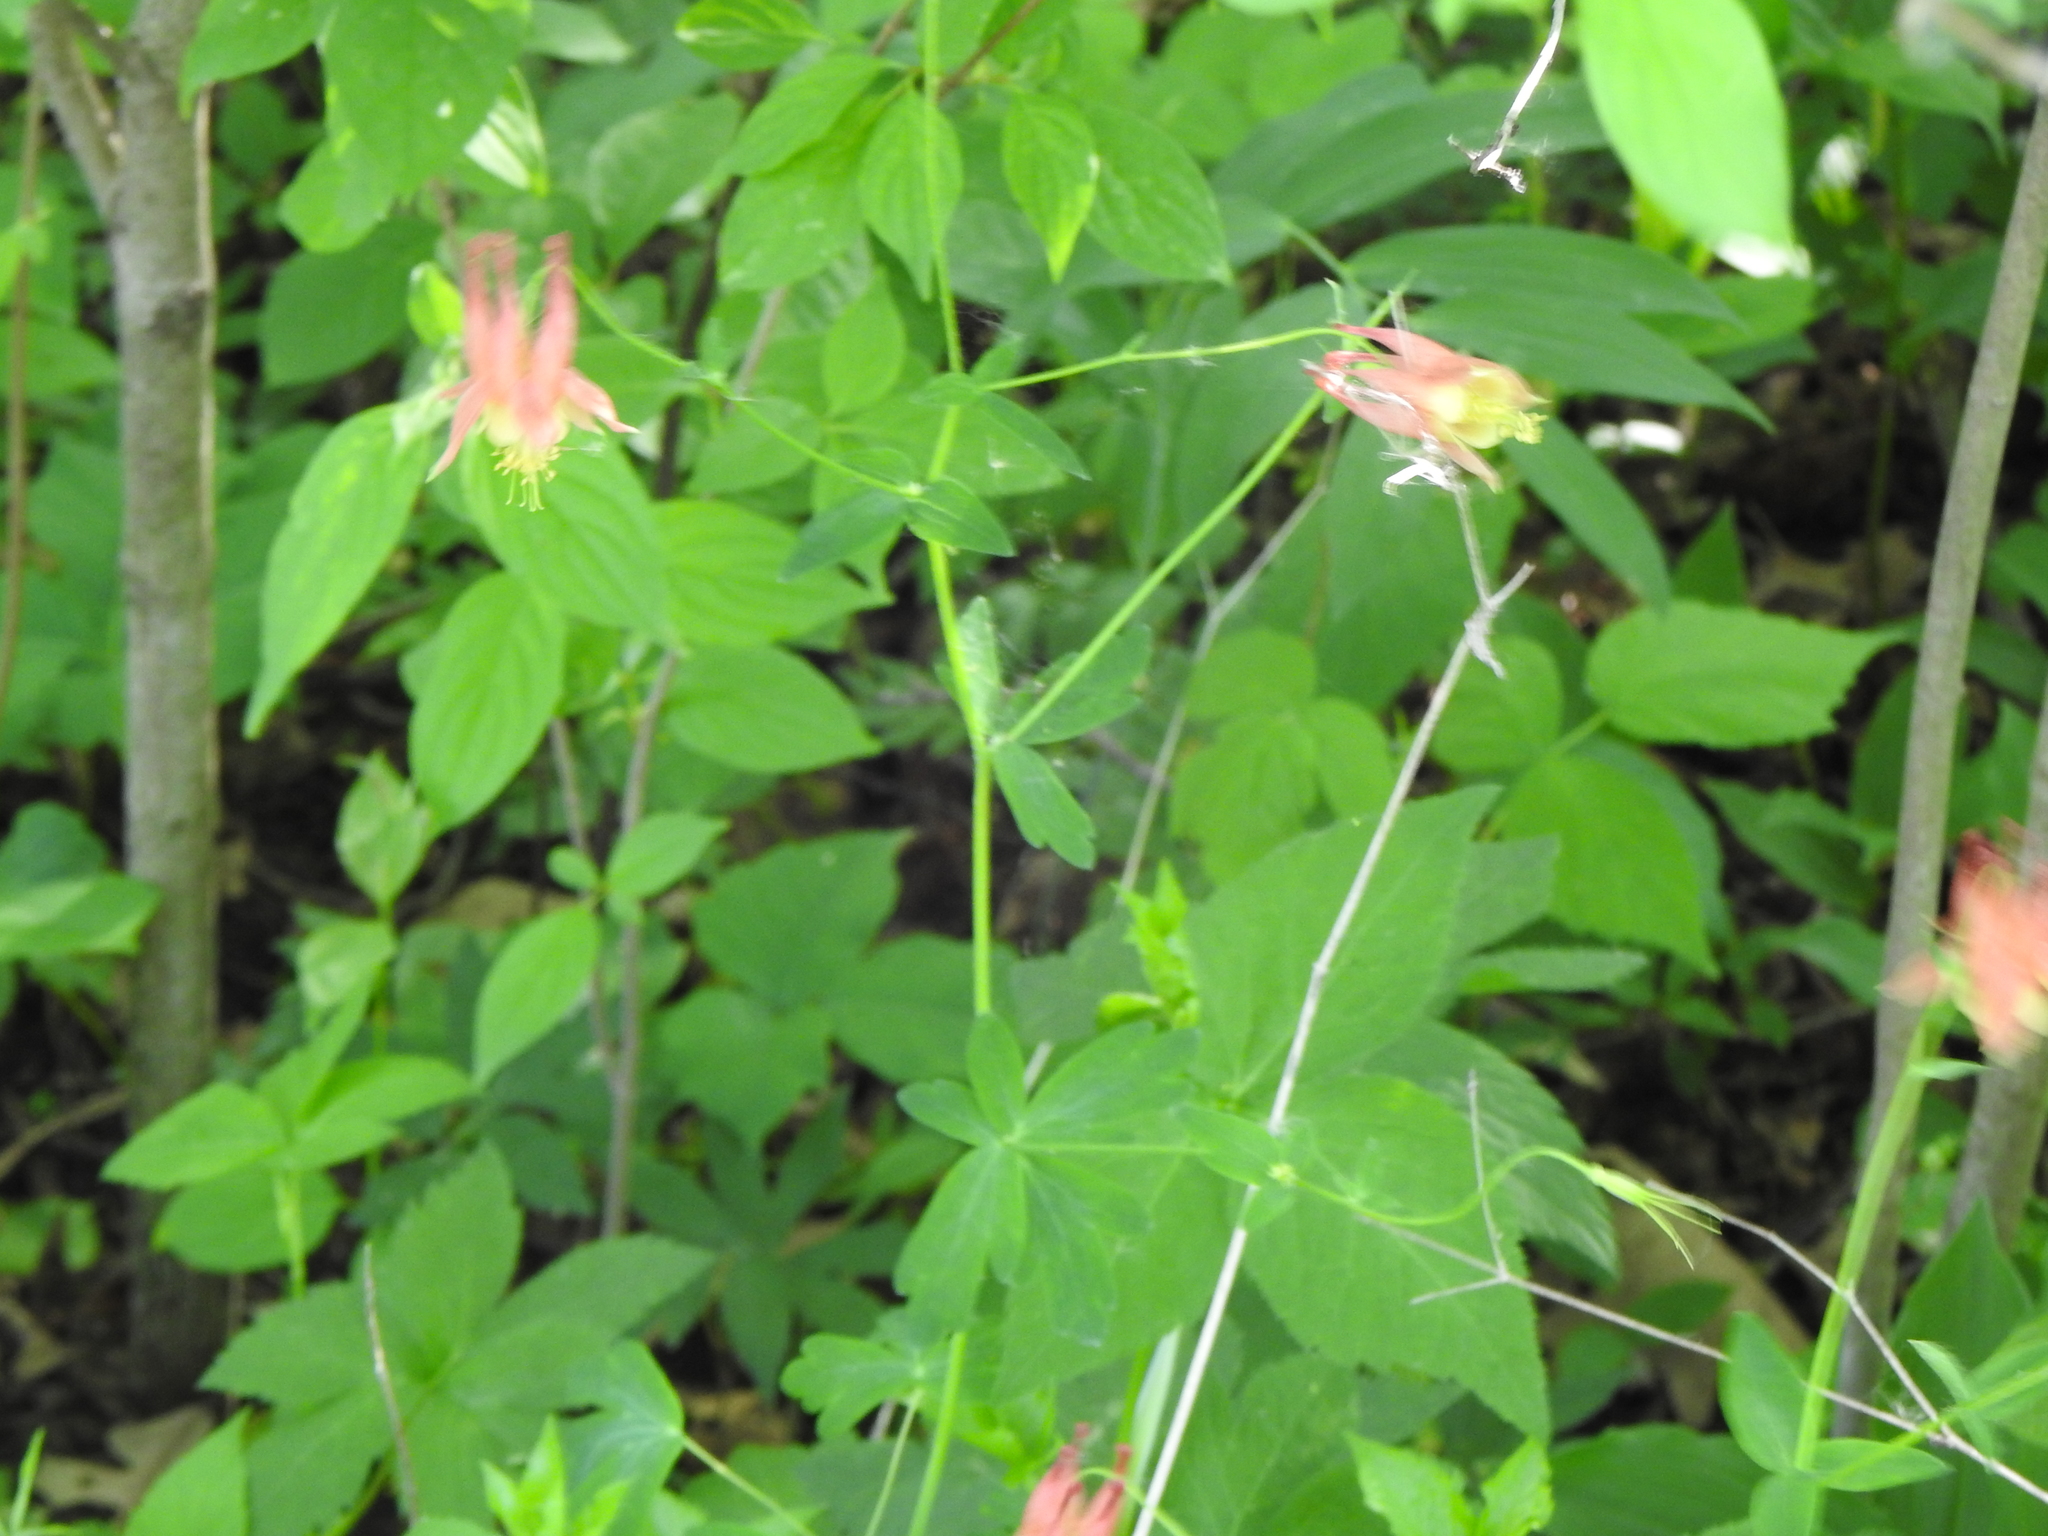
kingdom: Plantae
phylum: Tracheophyta
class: Magnoliopsida
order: Ranunculales
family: Ranunculaceae
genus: Aquilegia
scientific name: Aquilegia canadensis
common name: American columbine
